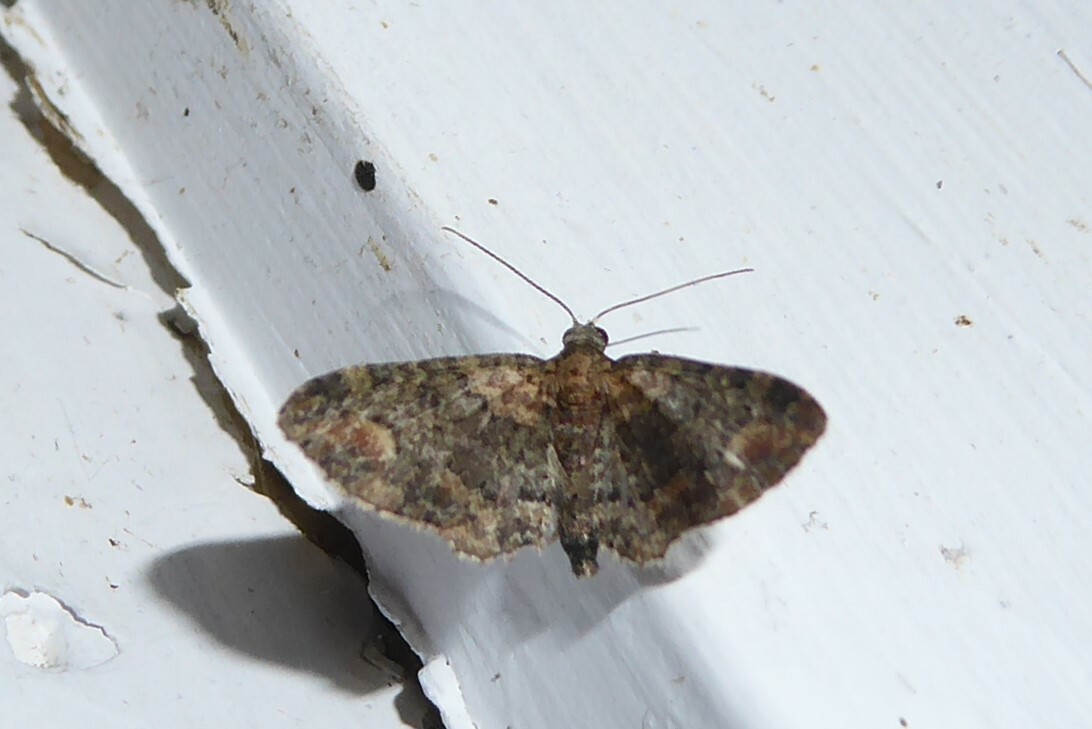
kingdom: Animalia
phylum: Arthropoda
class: Insecta
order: Lepidoptera
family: Geometridae
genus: Pasiphilodes
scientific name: Pasiphilodes testulata
